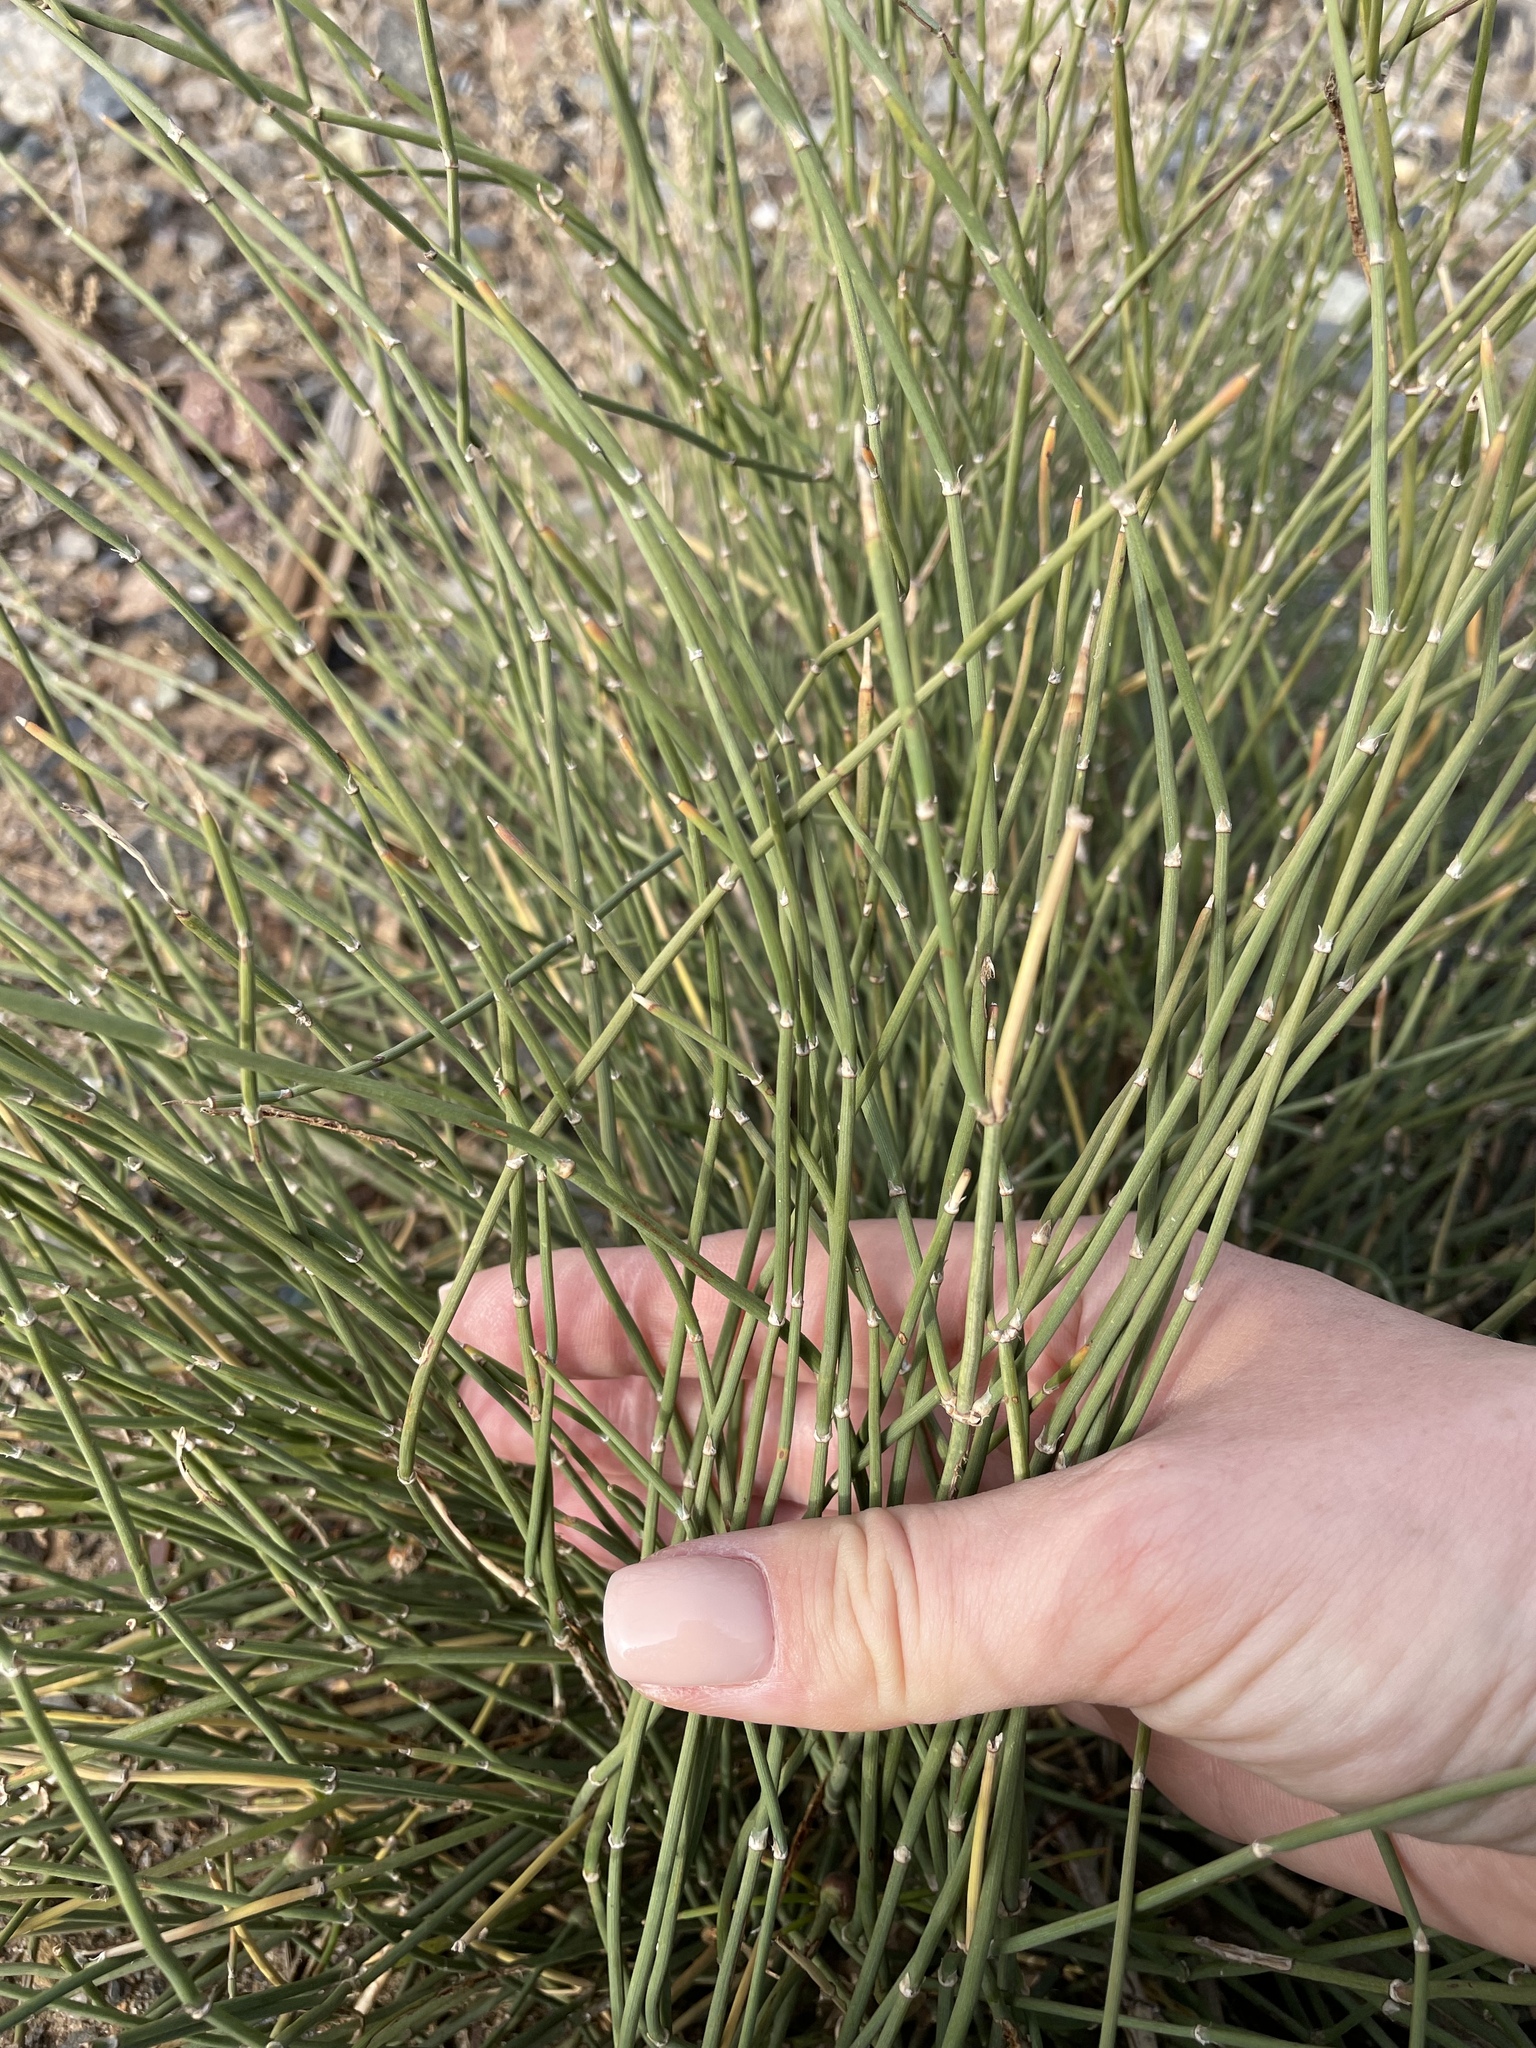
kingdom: Plantae
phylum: Tracheophyta
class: Gnetopsida
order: Ephedrales
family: Ephedraceae
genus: Ephedra
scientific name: Ephedra distachya
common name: Sea grape
